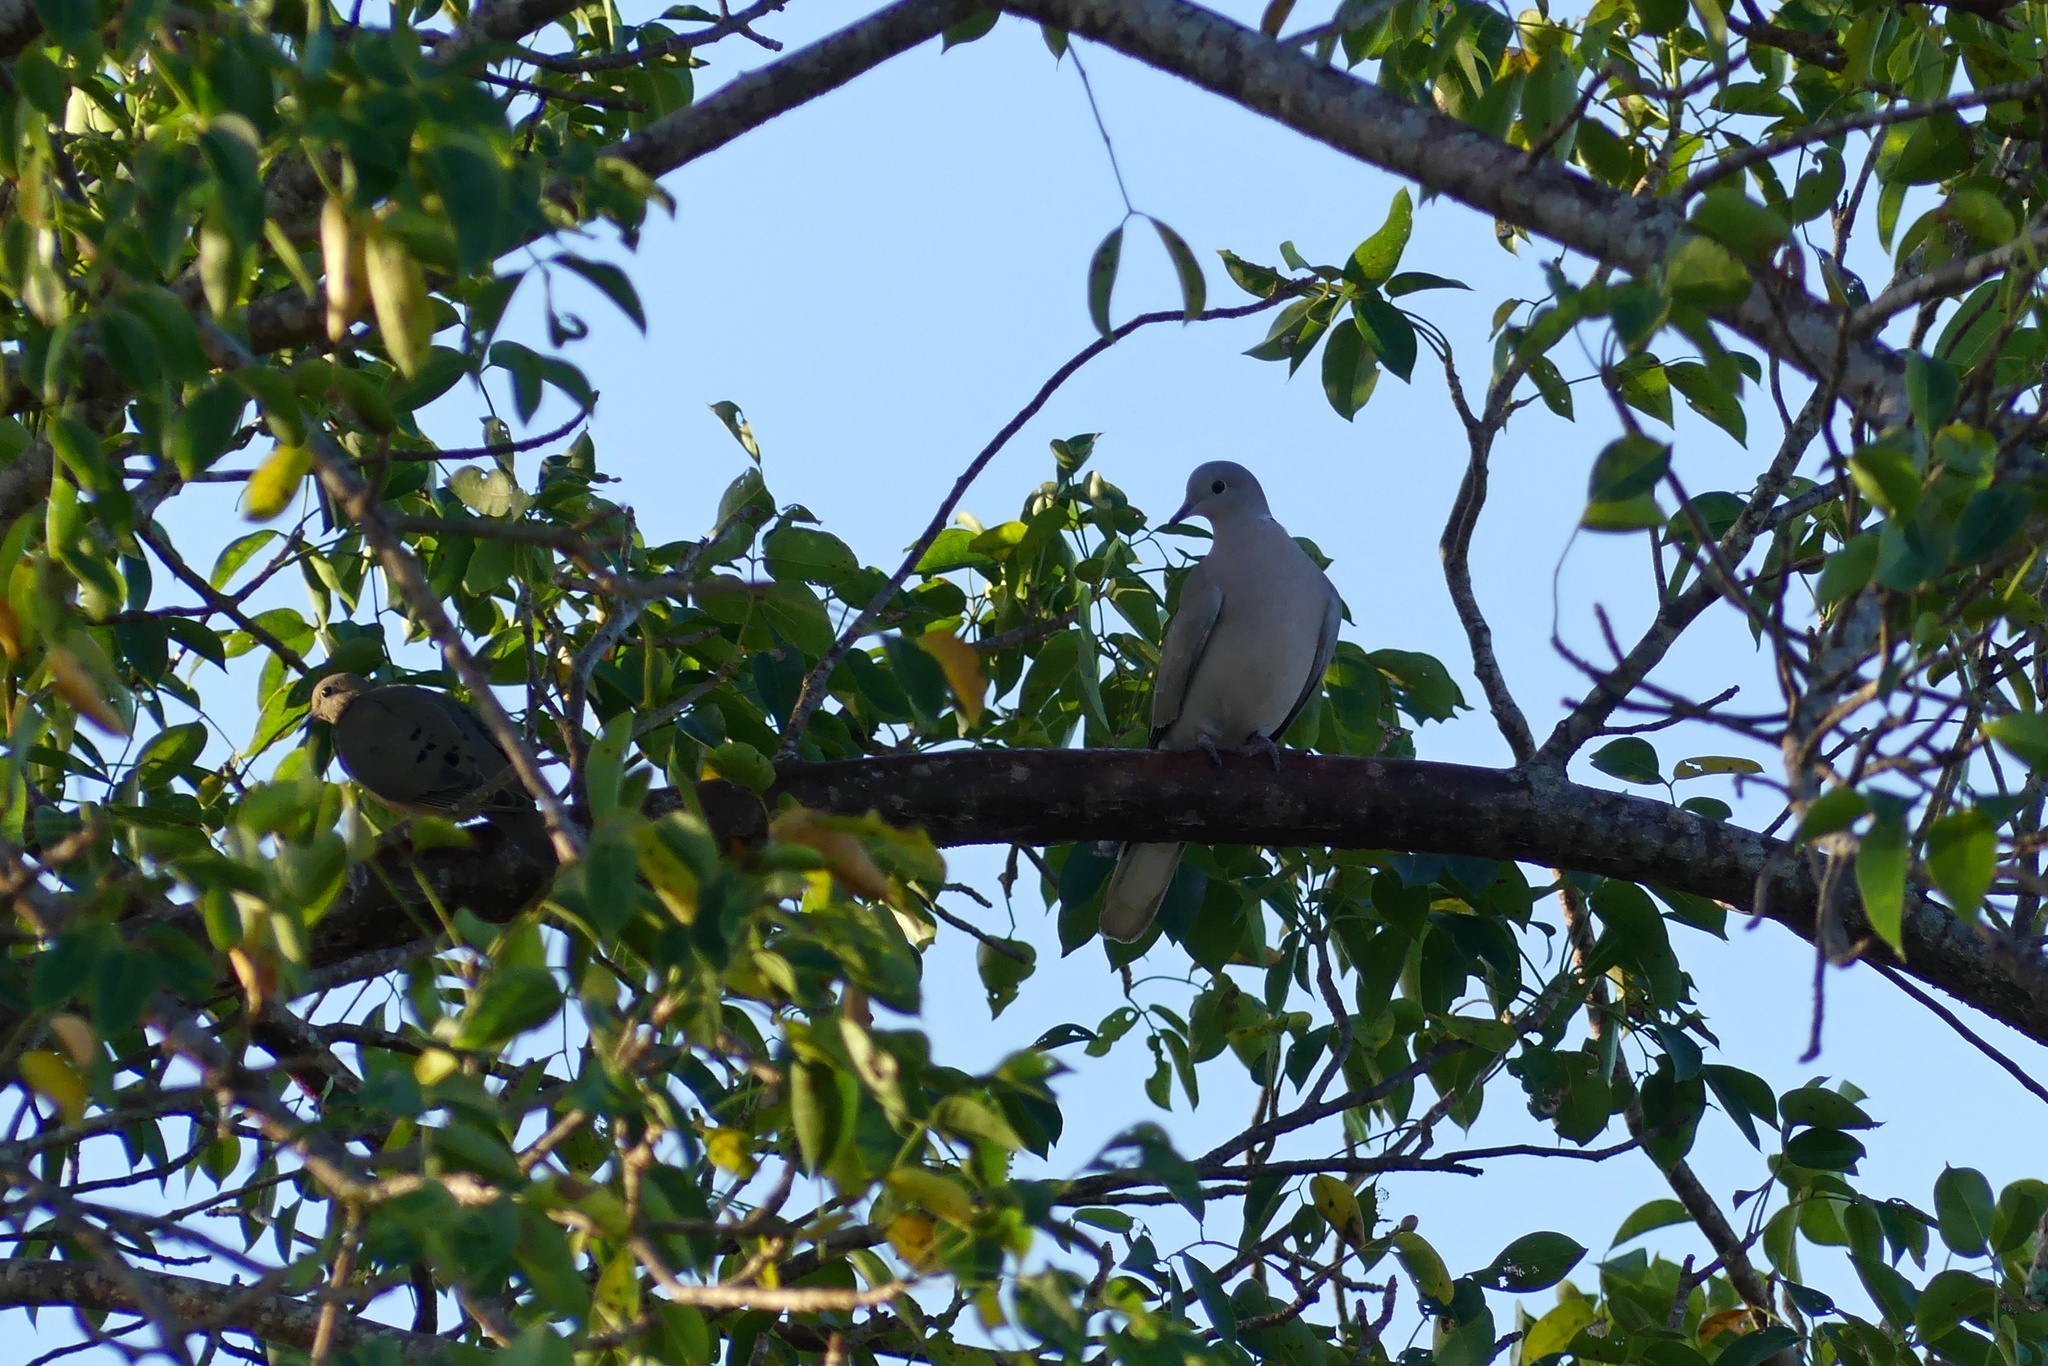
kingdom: Animalia
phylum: Chordata
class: Aves
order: Columbiformes
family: Columbidae
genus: Streptopelia
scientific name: Streptopelia decaocto
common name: Eurasian collared dove
